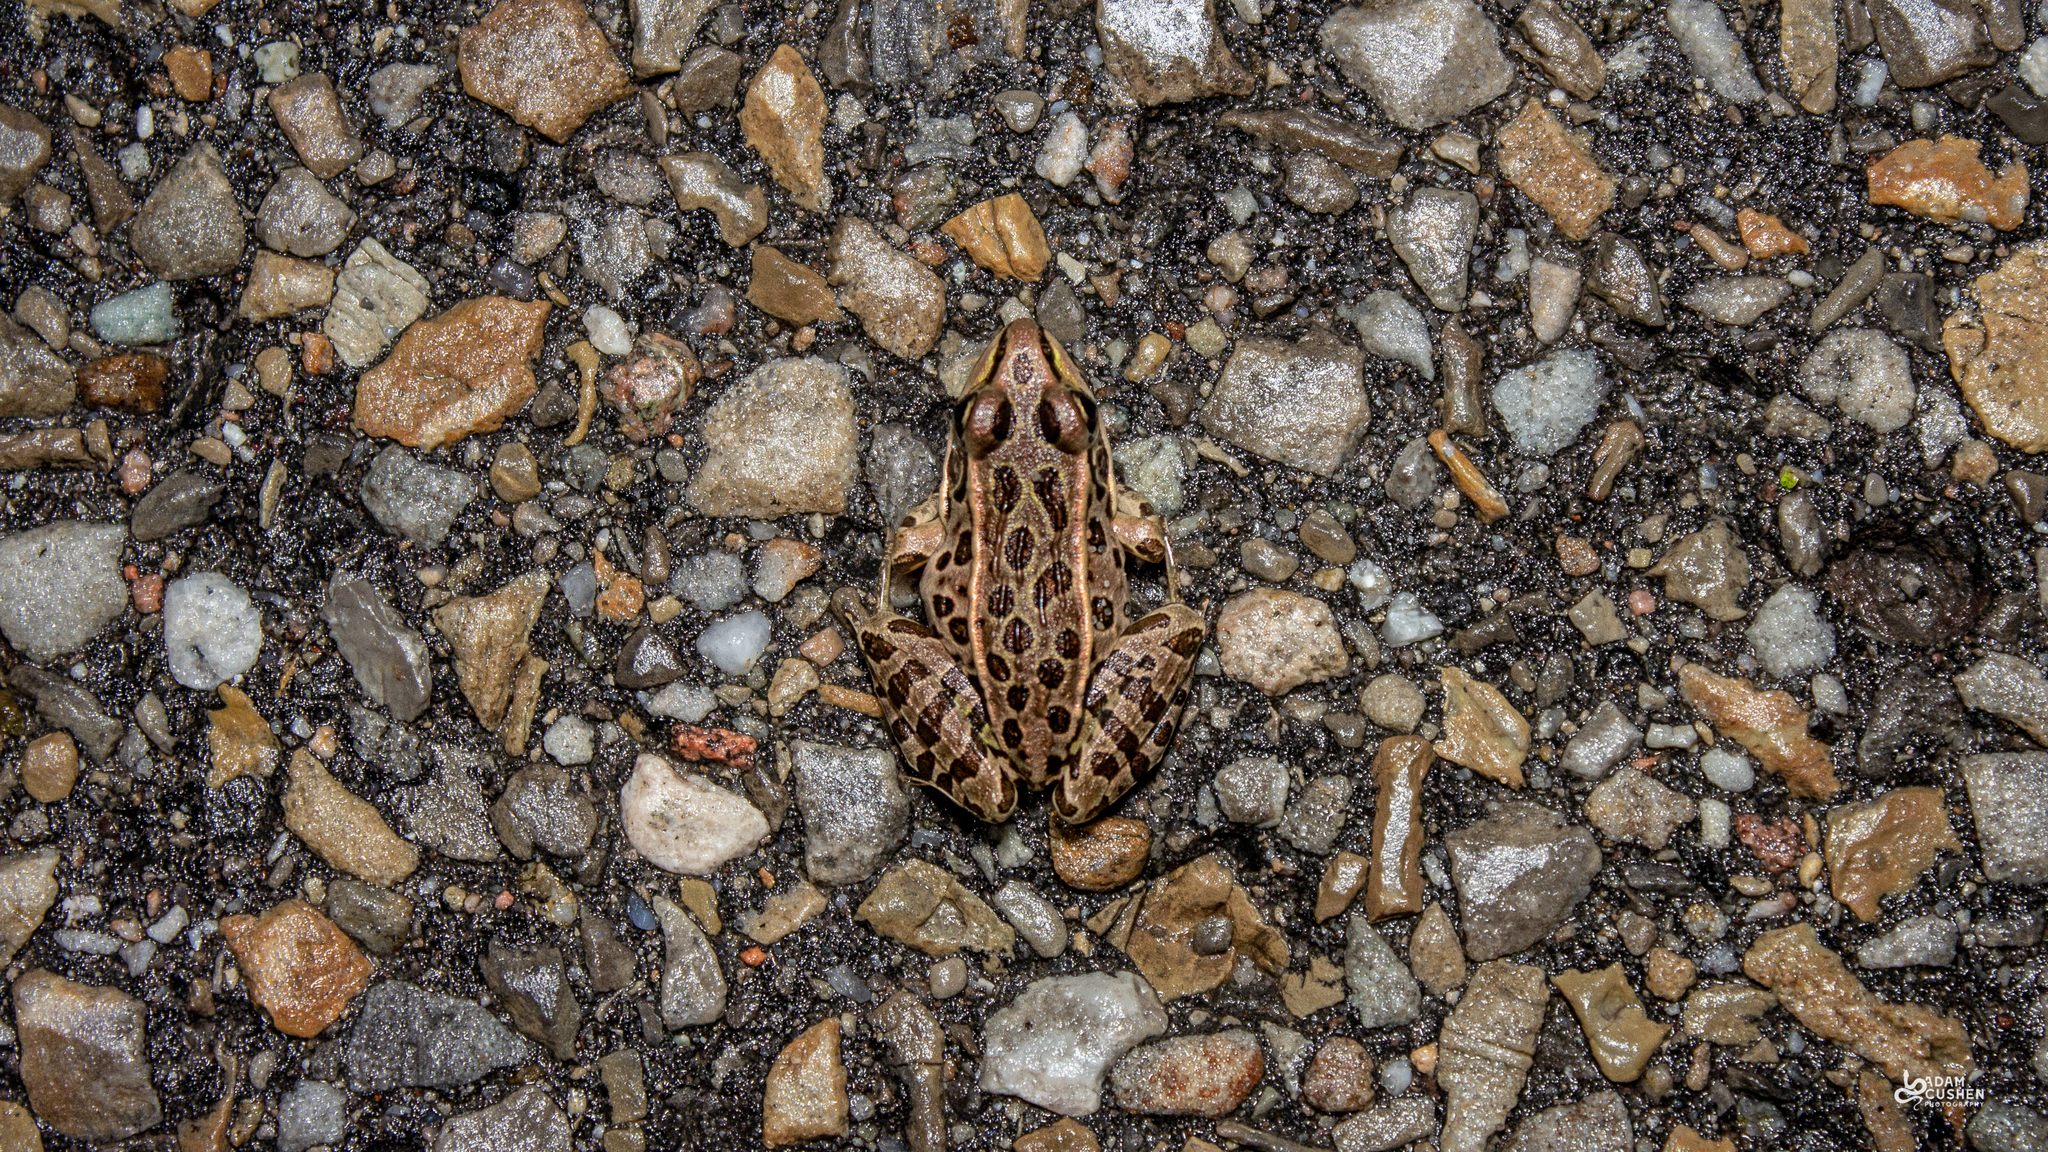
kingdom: Animalia
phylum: Chordata
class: Amphibia
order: Anura
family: Ranidae
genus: Lithobates
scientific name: Lithobates pipiens
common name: Northern leopard frog
